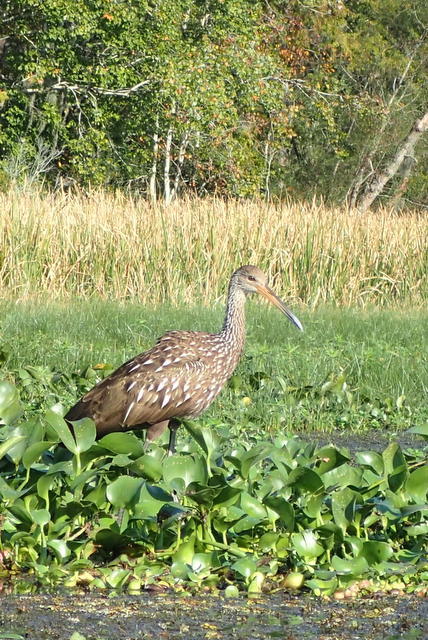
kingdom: Animalia
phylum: Chordata
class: Aves
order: Gruiformes
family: Aramidae
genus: Aramus
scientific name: Aramus guarauna
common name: Limpkin
